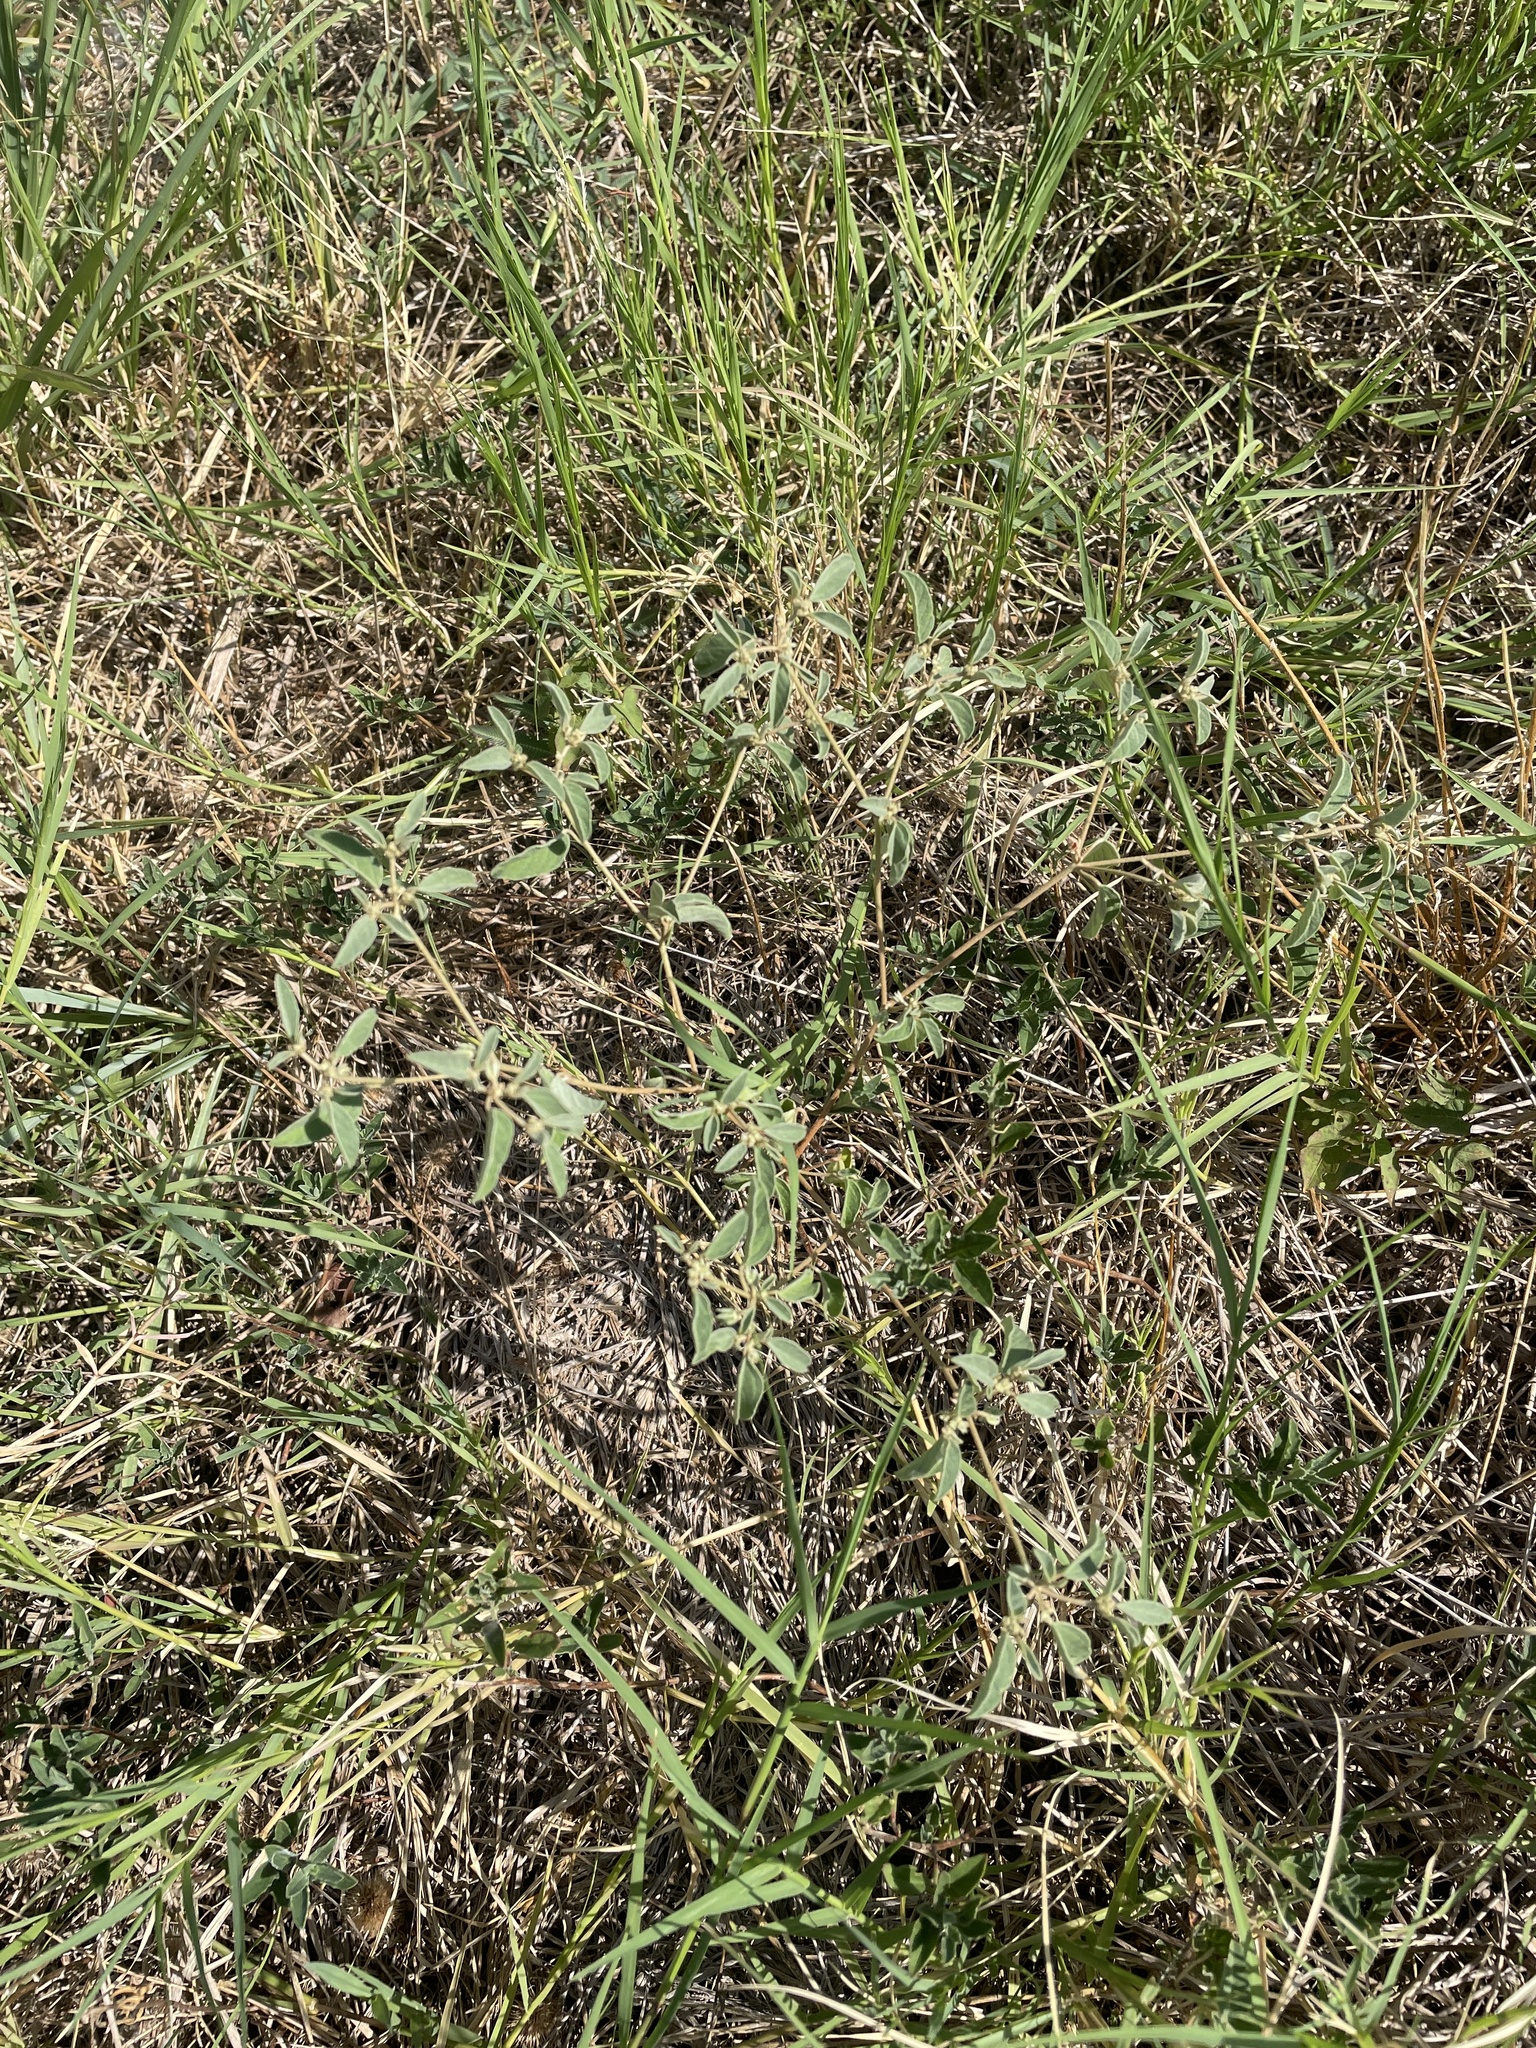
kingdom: Plantae
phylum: Tracheophyta
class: Magnoliopsida
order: Malpighiales
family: Euphorbiaceae
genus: Croton
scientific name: Croton monanthogynus
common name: One-seed croton
